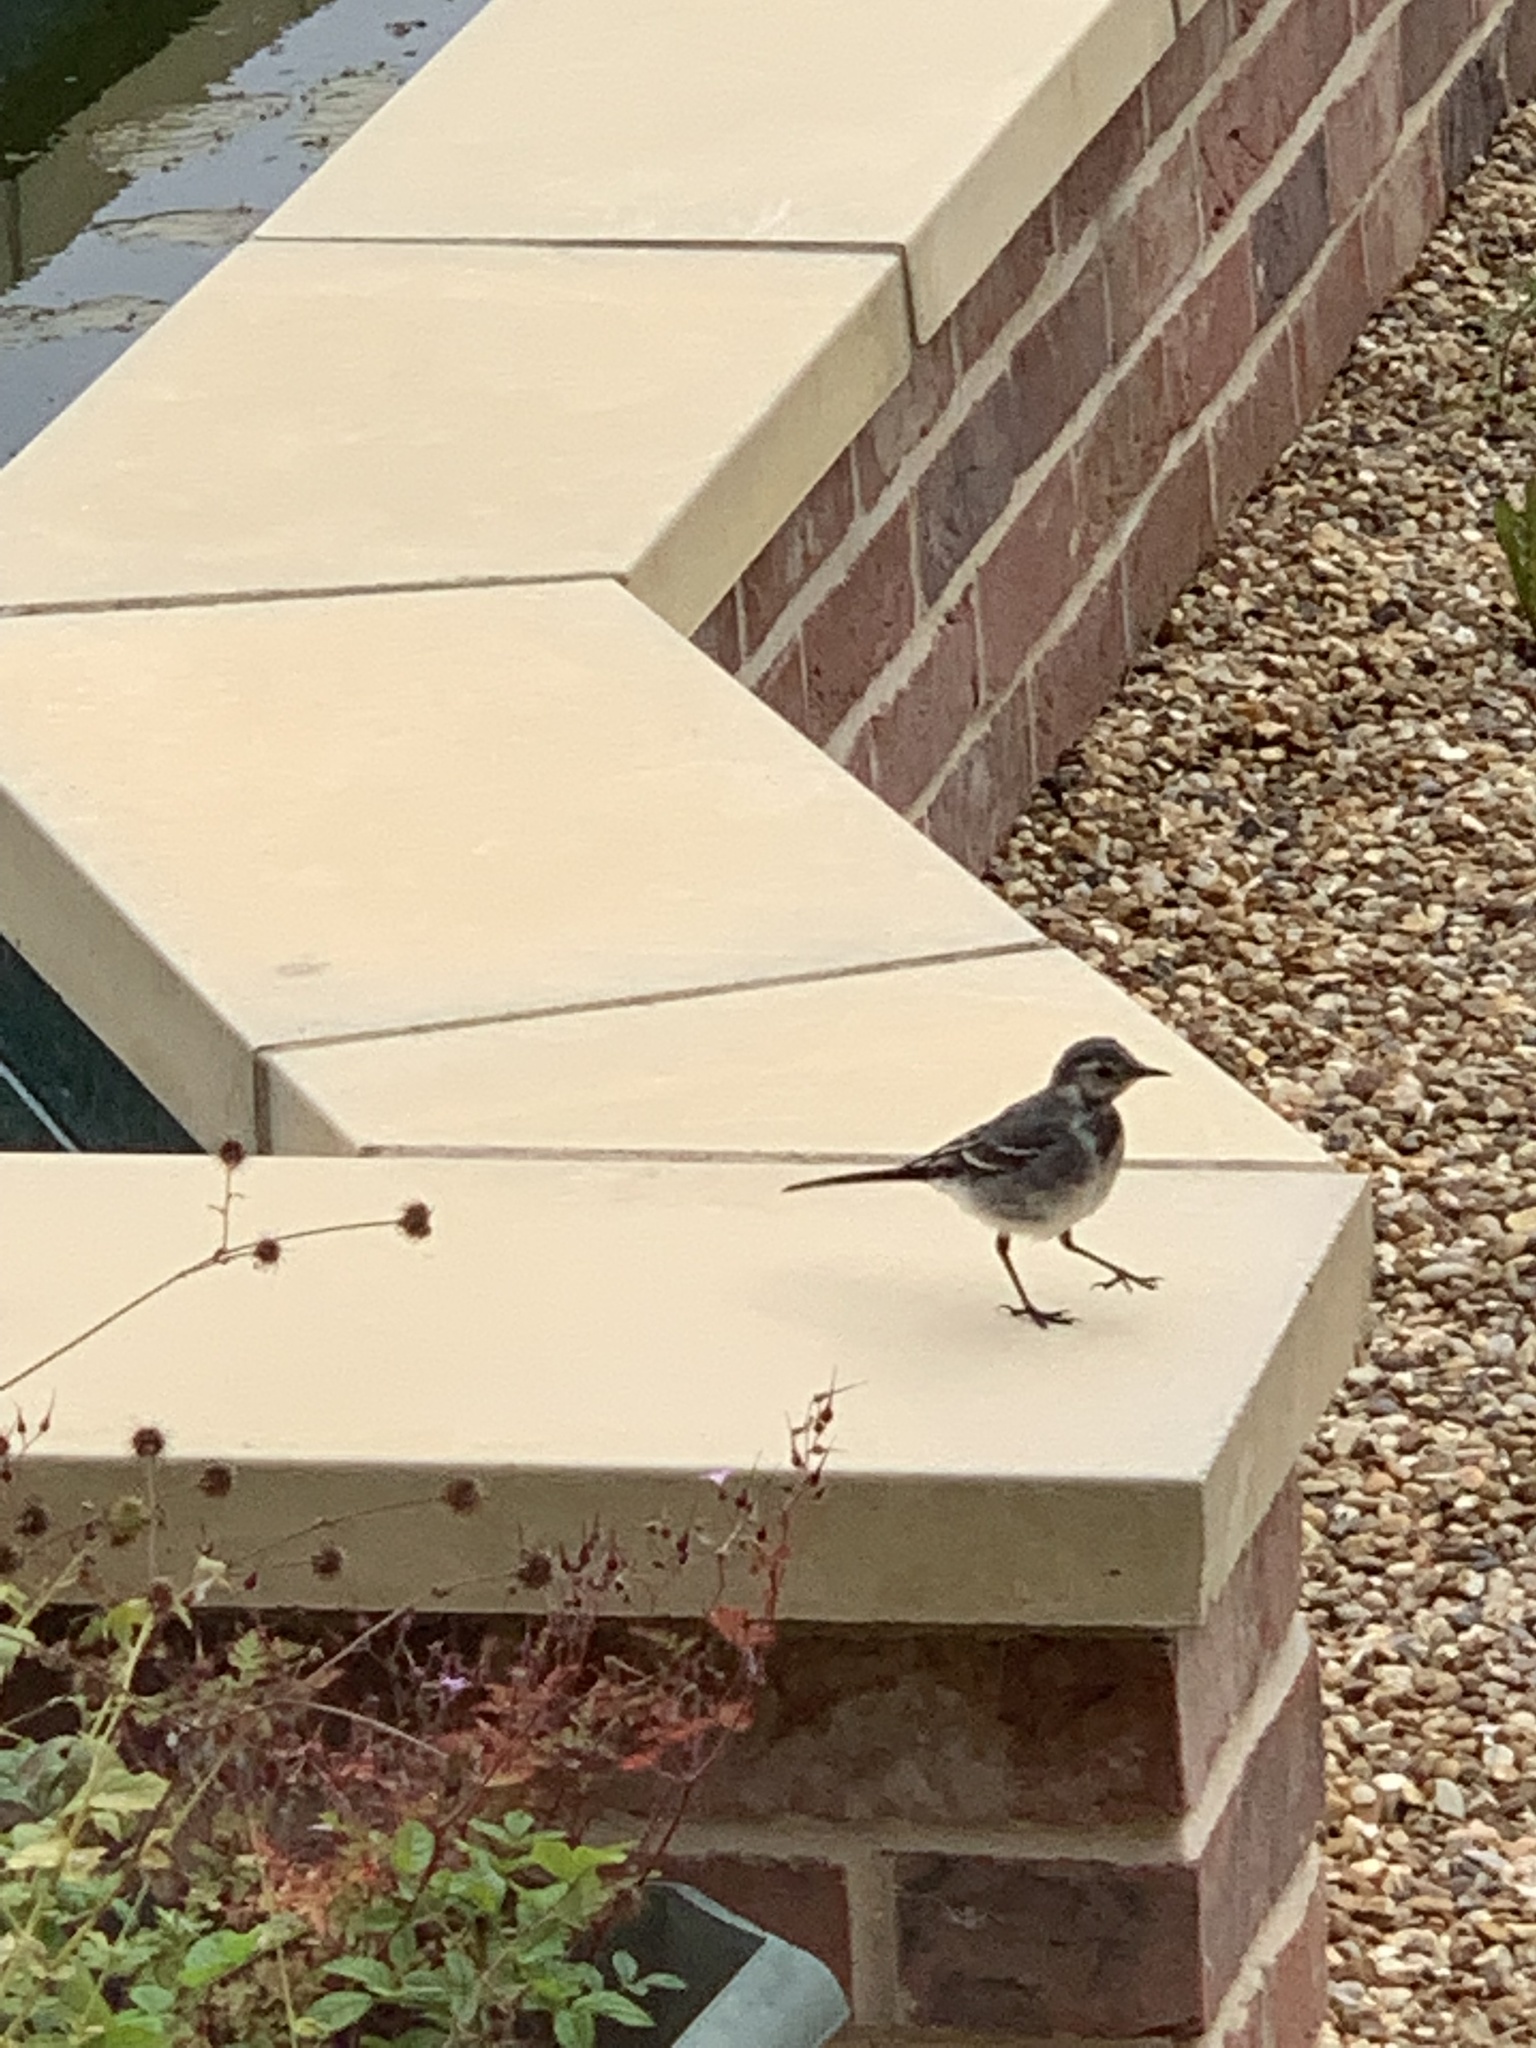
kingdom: Animalia
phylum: Chordata
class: Aves
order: Passeriformes
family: Motacillidae
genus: Motacilla
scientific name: Motacilla alba
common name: White wagtail
